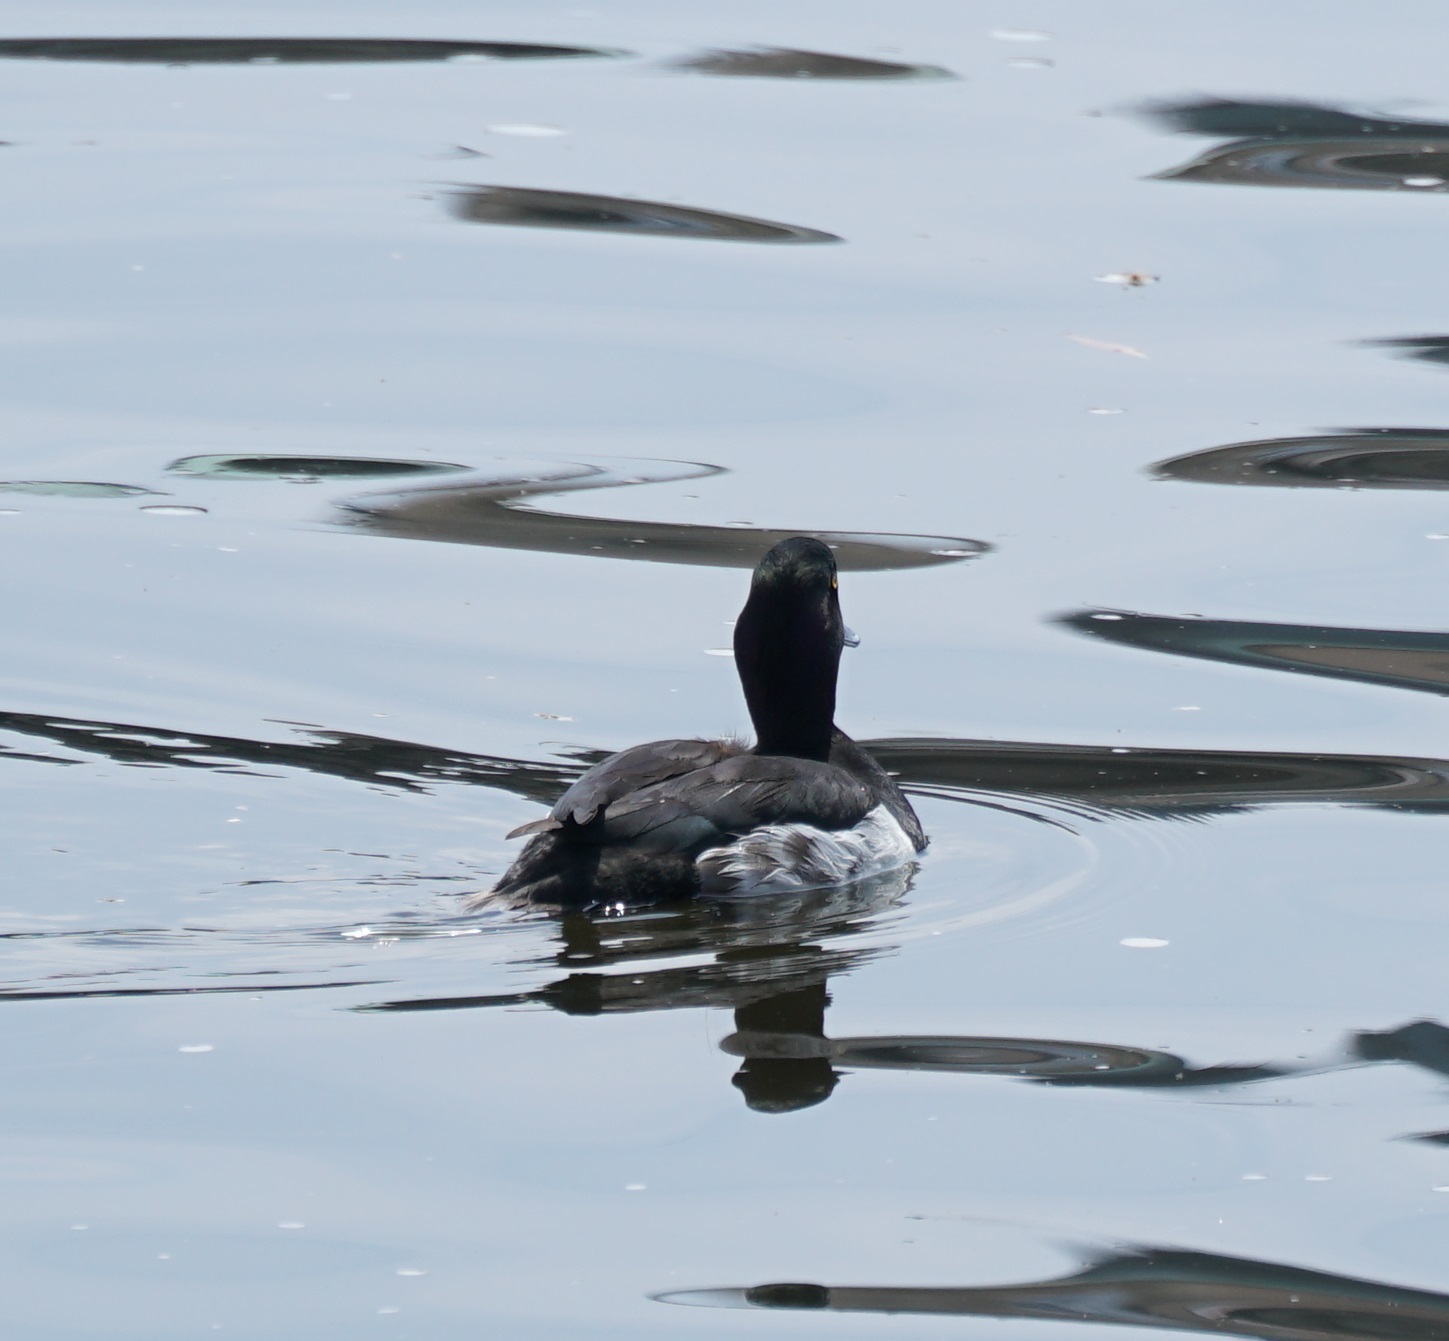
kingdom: Animalia
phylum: Chordata
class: Aves
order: Anseriformes
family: Anatidae
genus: Aythya
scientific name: Aythya fuligula
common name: Tufted duck
